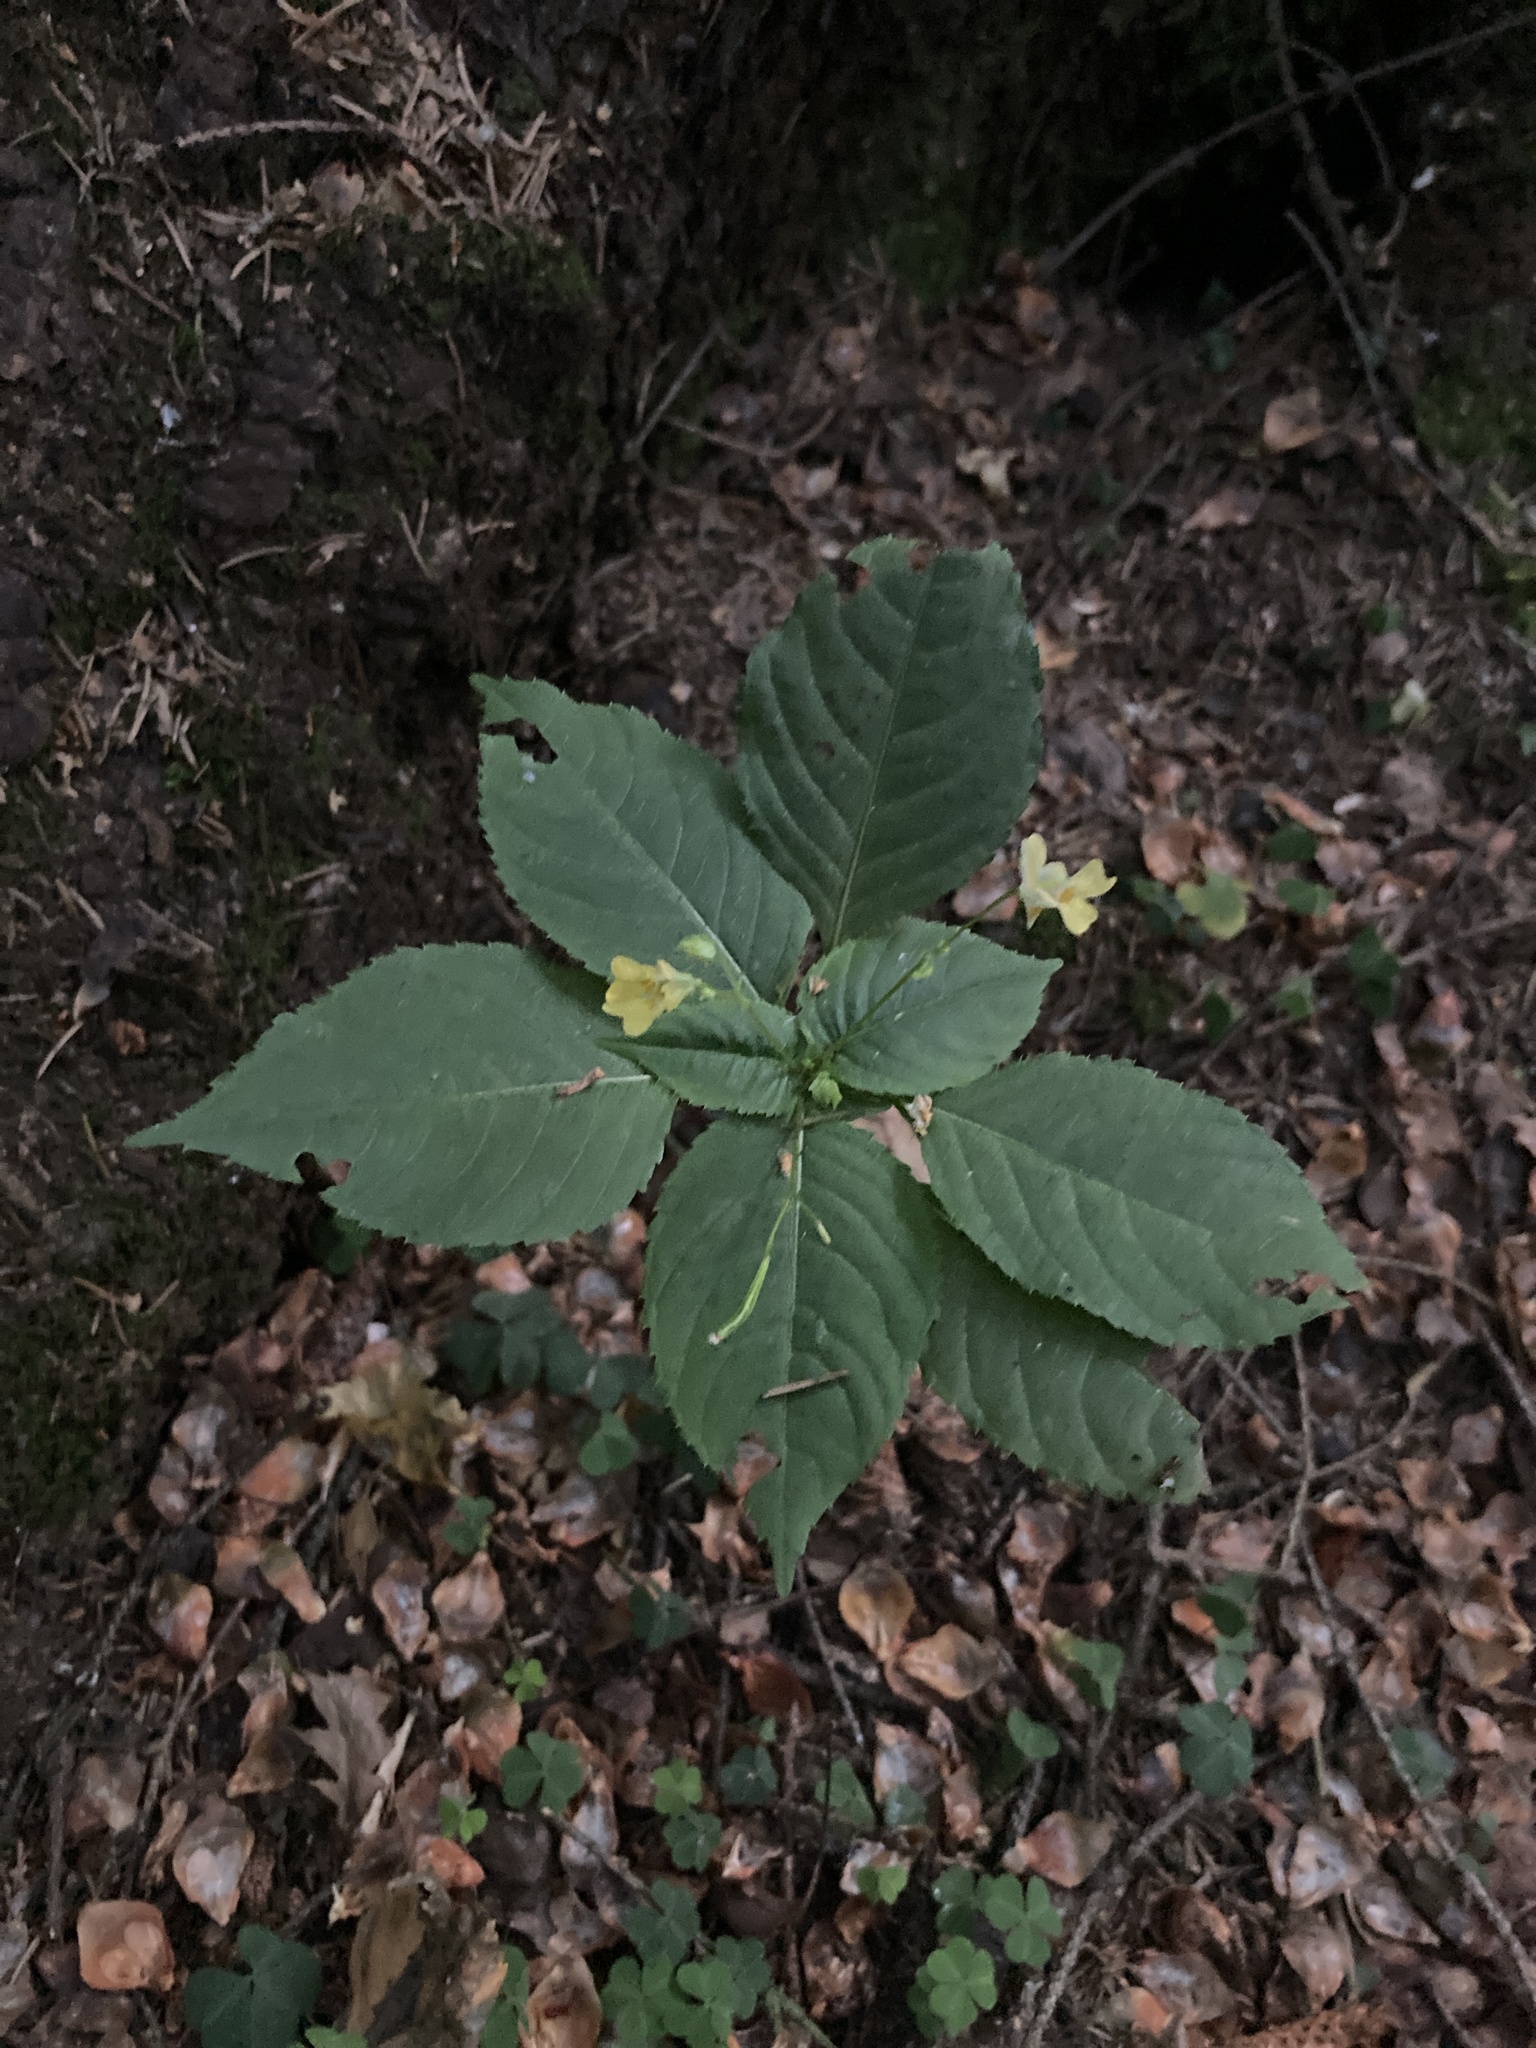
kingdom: Plantae
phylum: Tracheophyta
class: Magnoliopsida
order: Ericales
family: Balsaminaceae
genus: Impatiens
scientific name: Impatiens parviflora
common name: Small balsam
